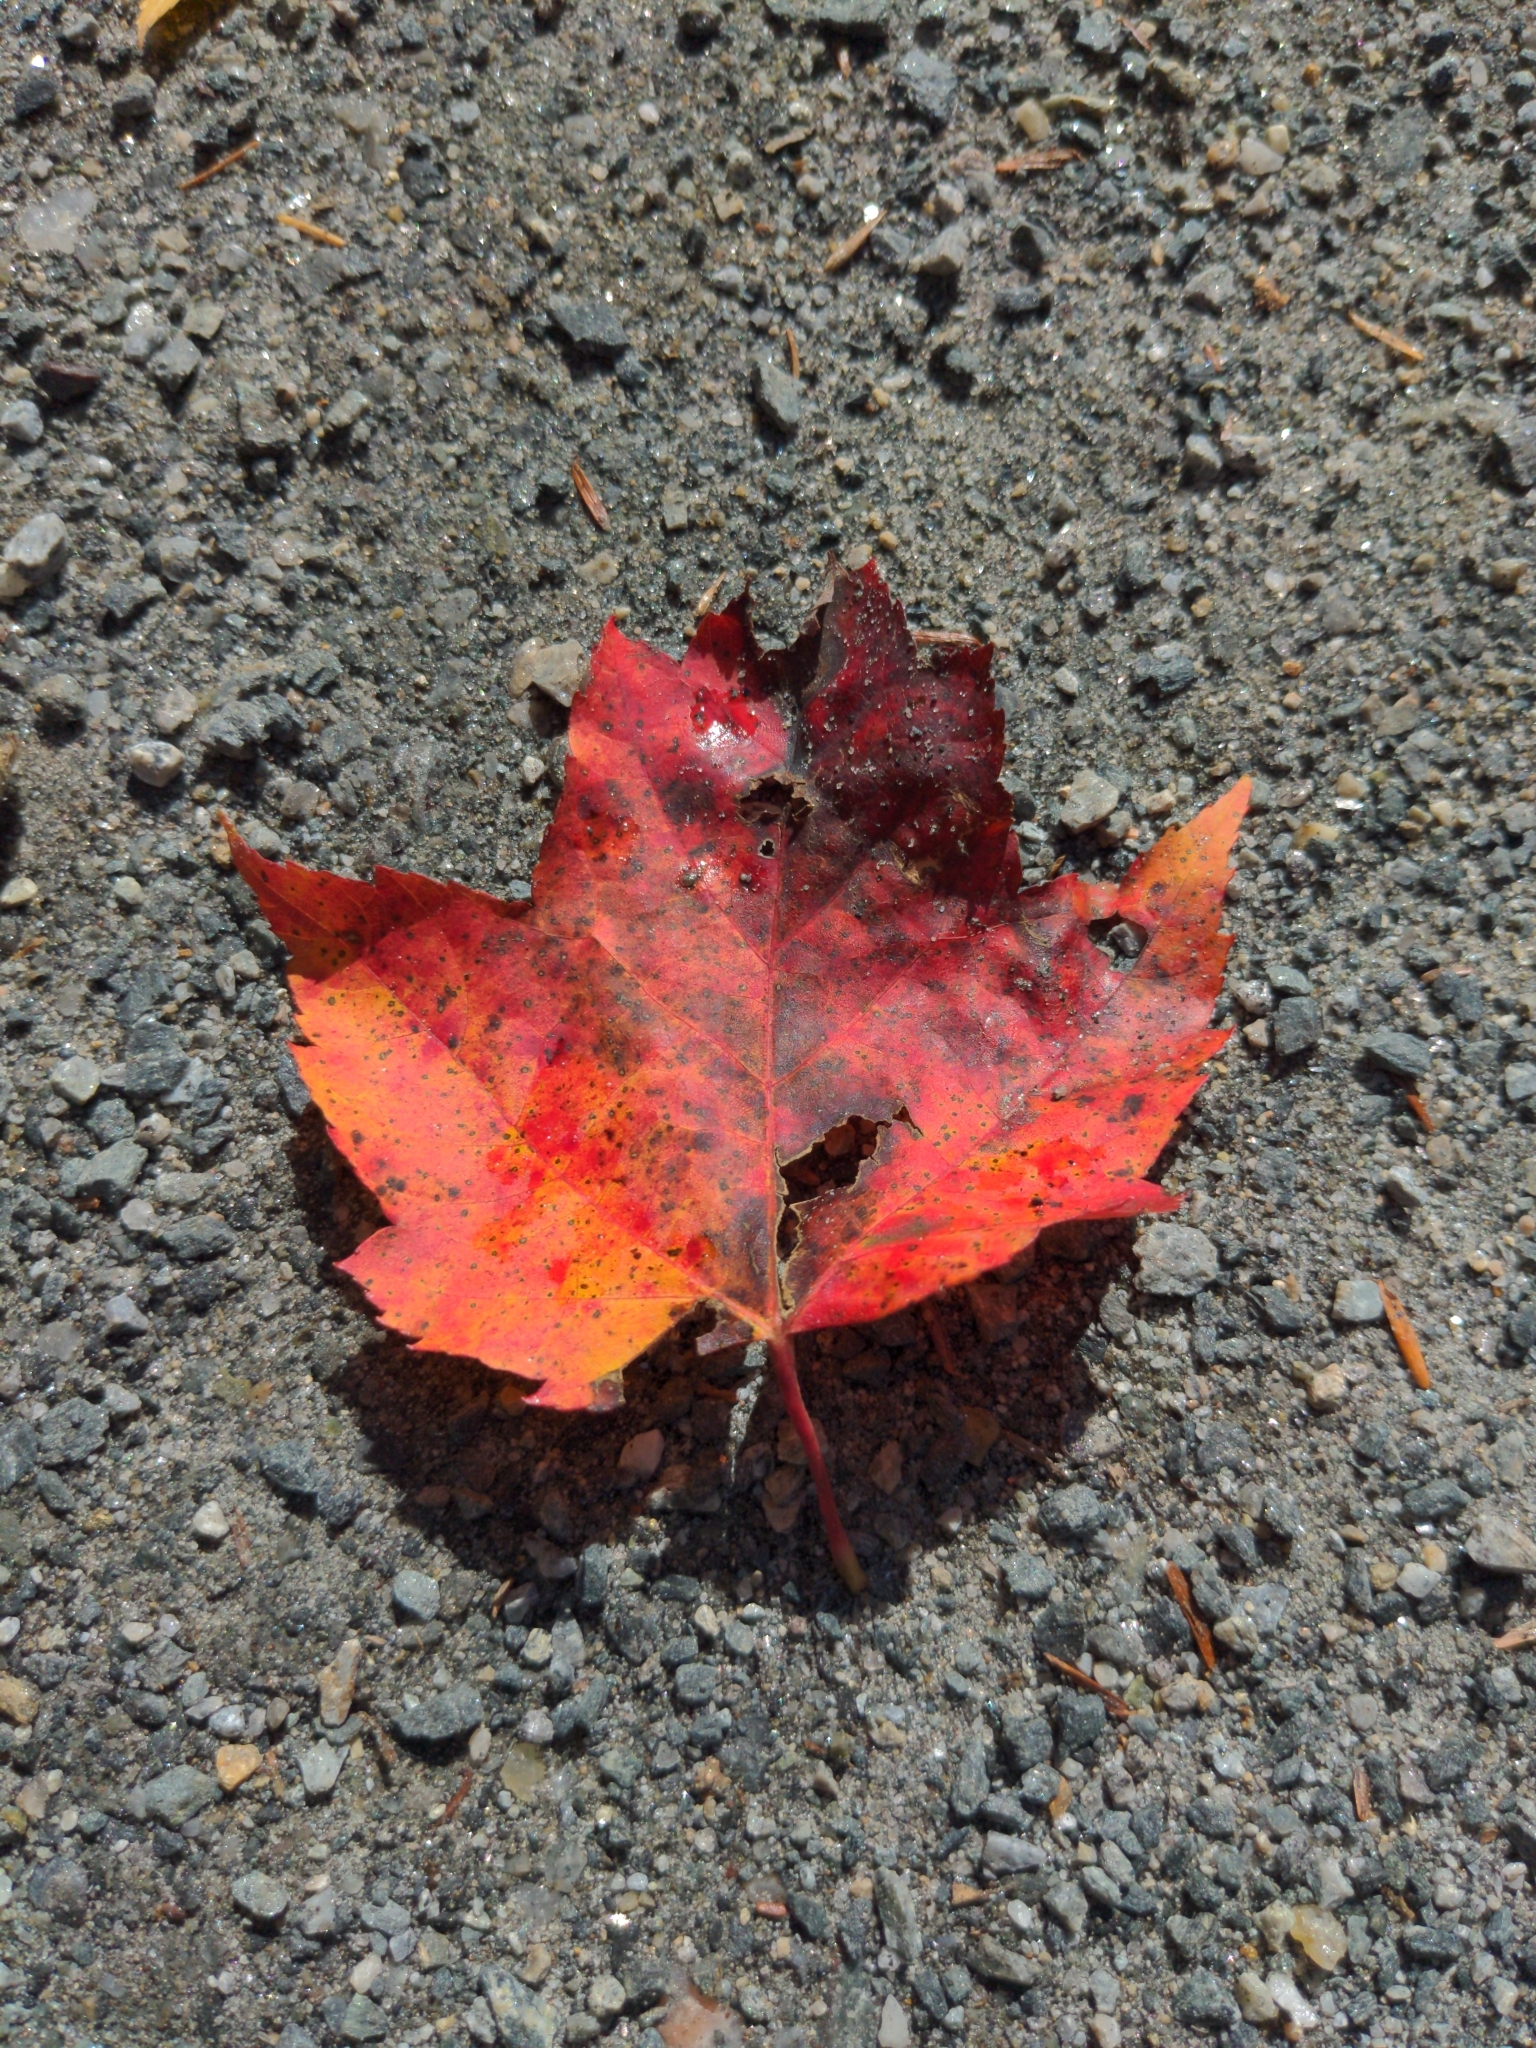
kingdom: Plantae
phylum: Tracheophyta
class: Magnoliopsida
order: Sapindales
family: Sapindaceae
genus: Acer
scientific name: Acer rubrum
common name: Red maple
